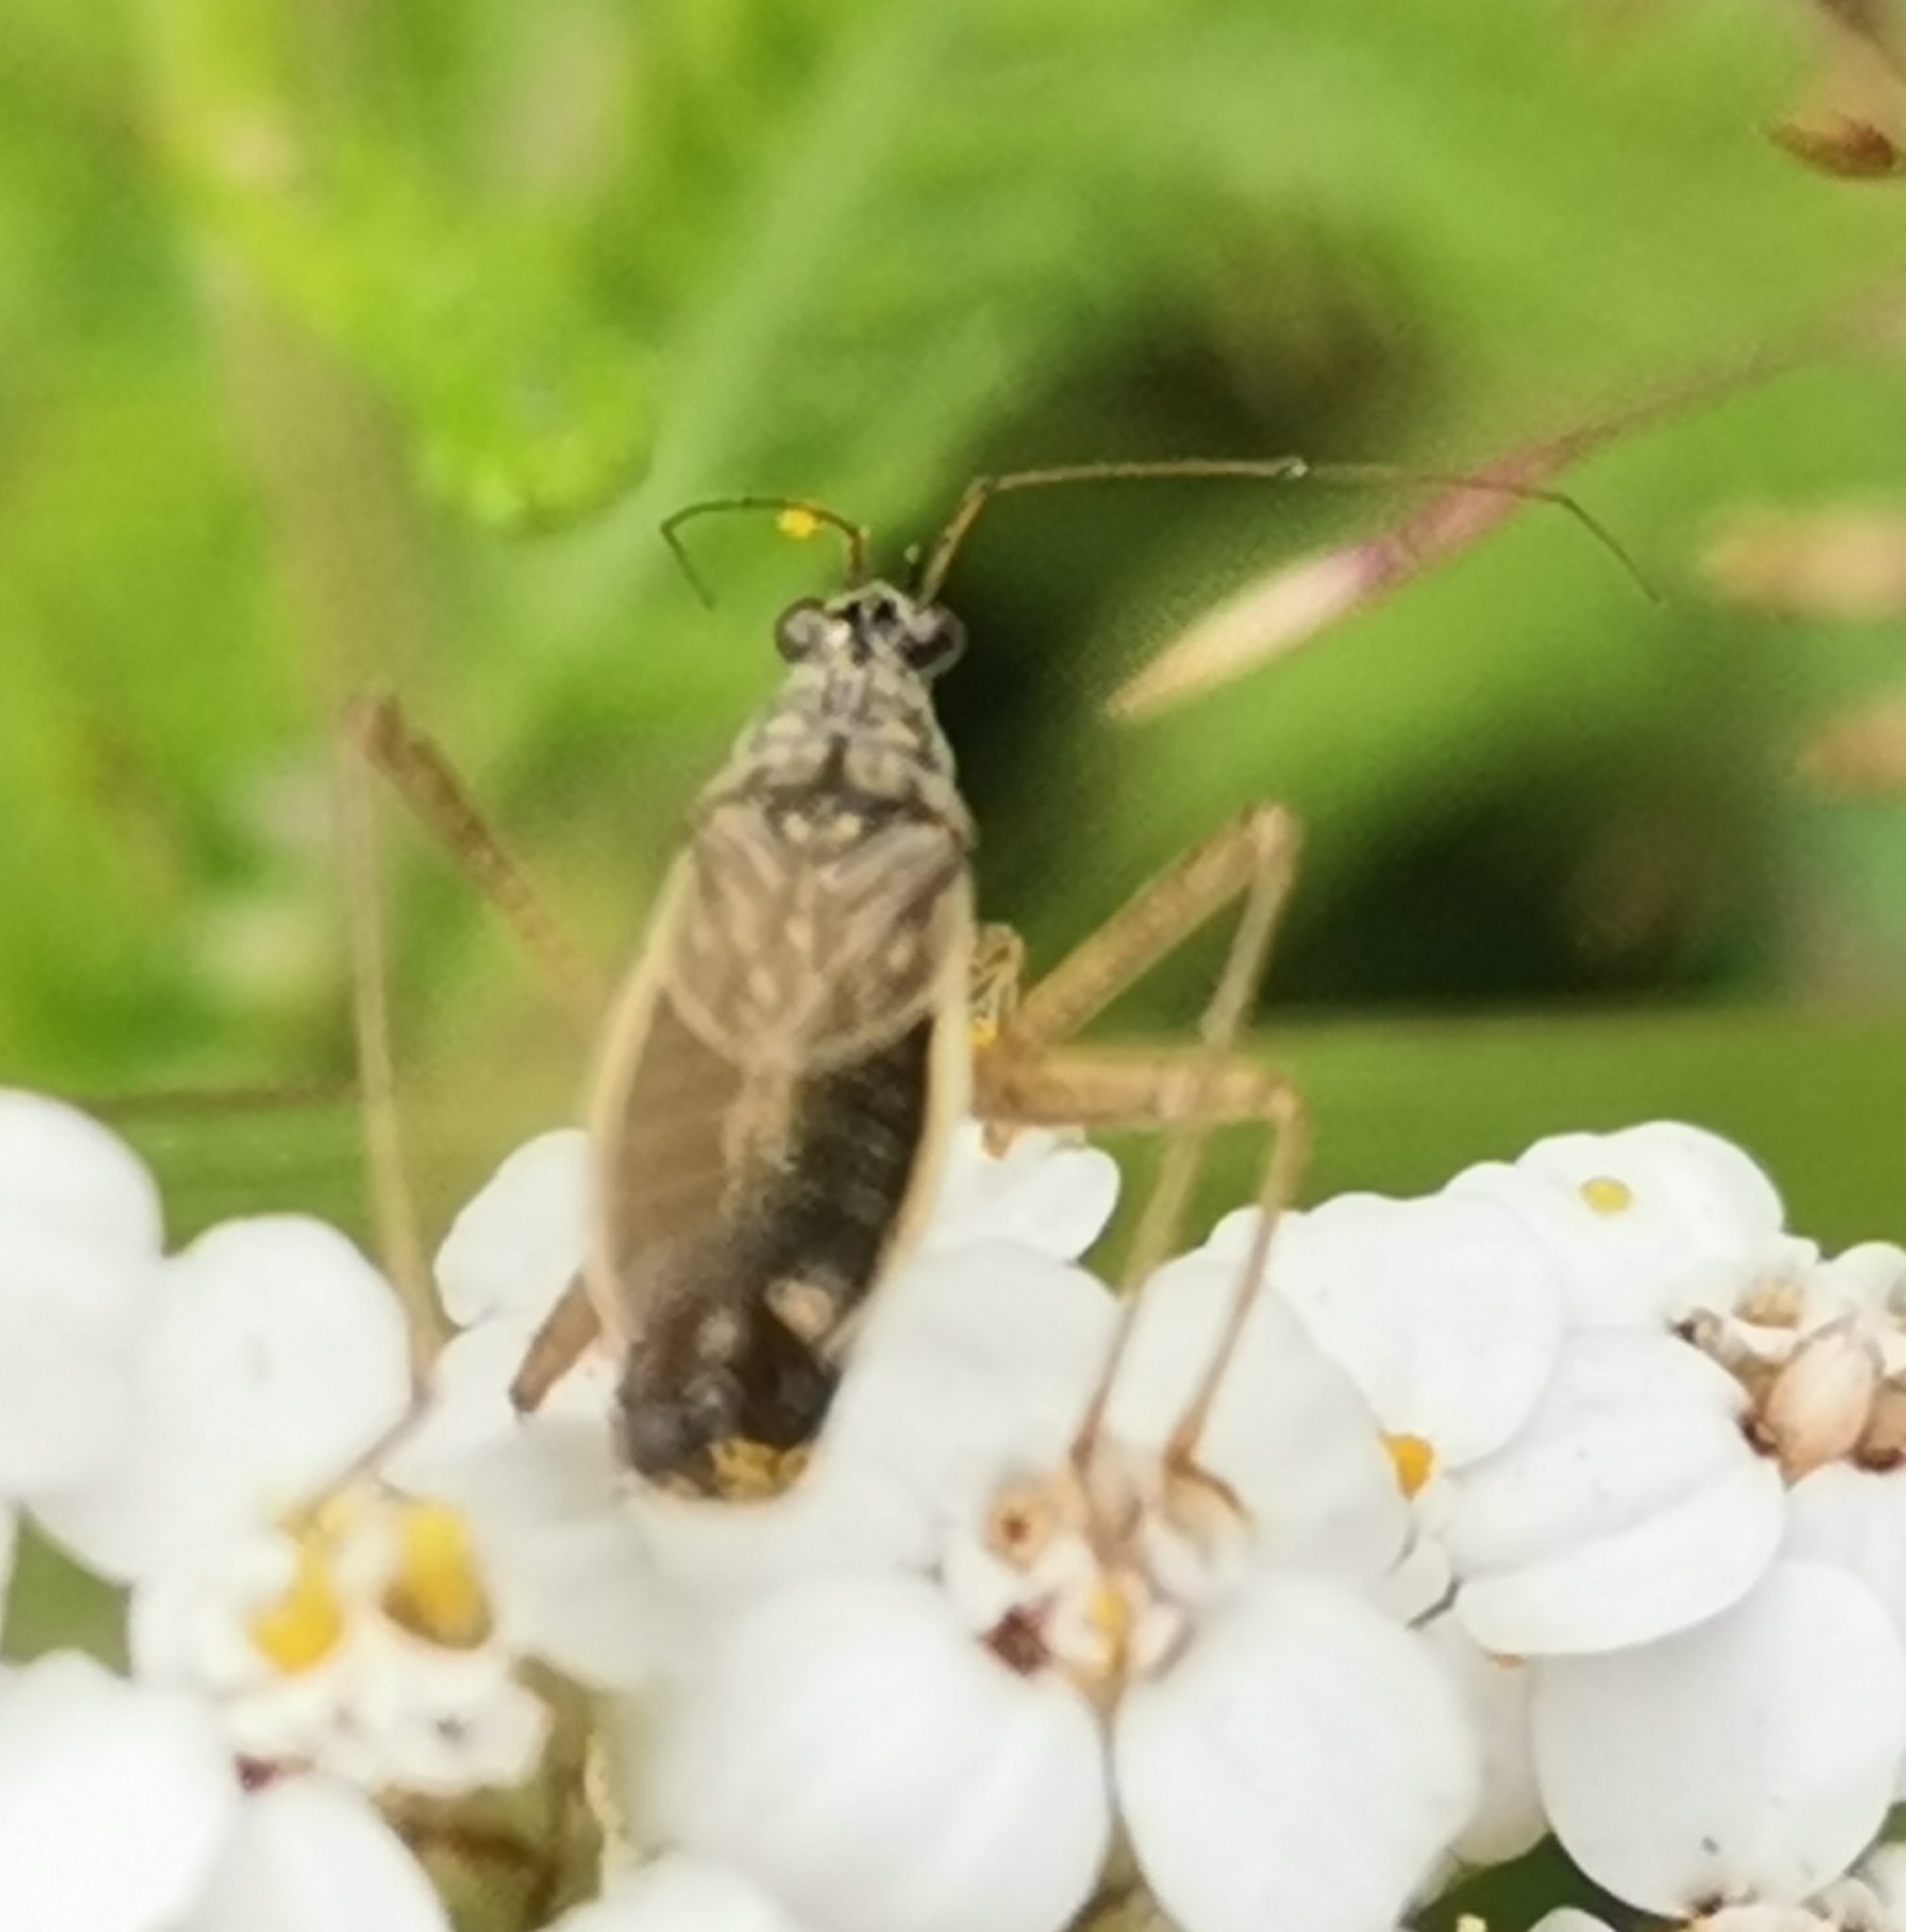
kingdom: Animalia
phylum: Arthropoda
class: Insecta
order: Hemiptera
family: Nabidae
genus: Nabis
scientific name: Nabis flavomarginatus
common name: Broad damselbug
